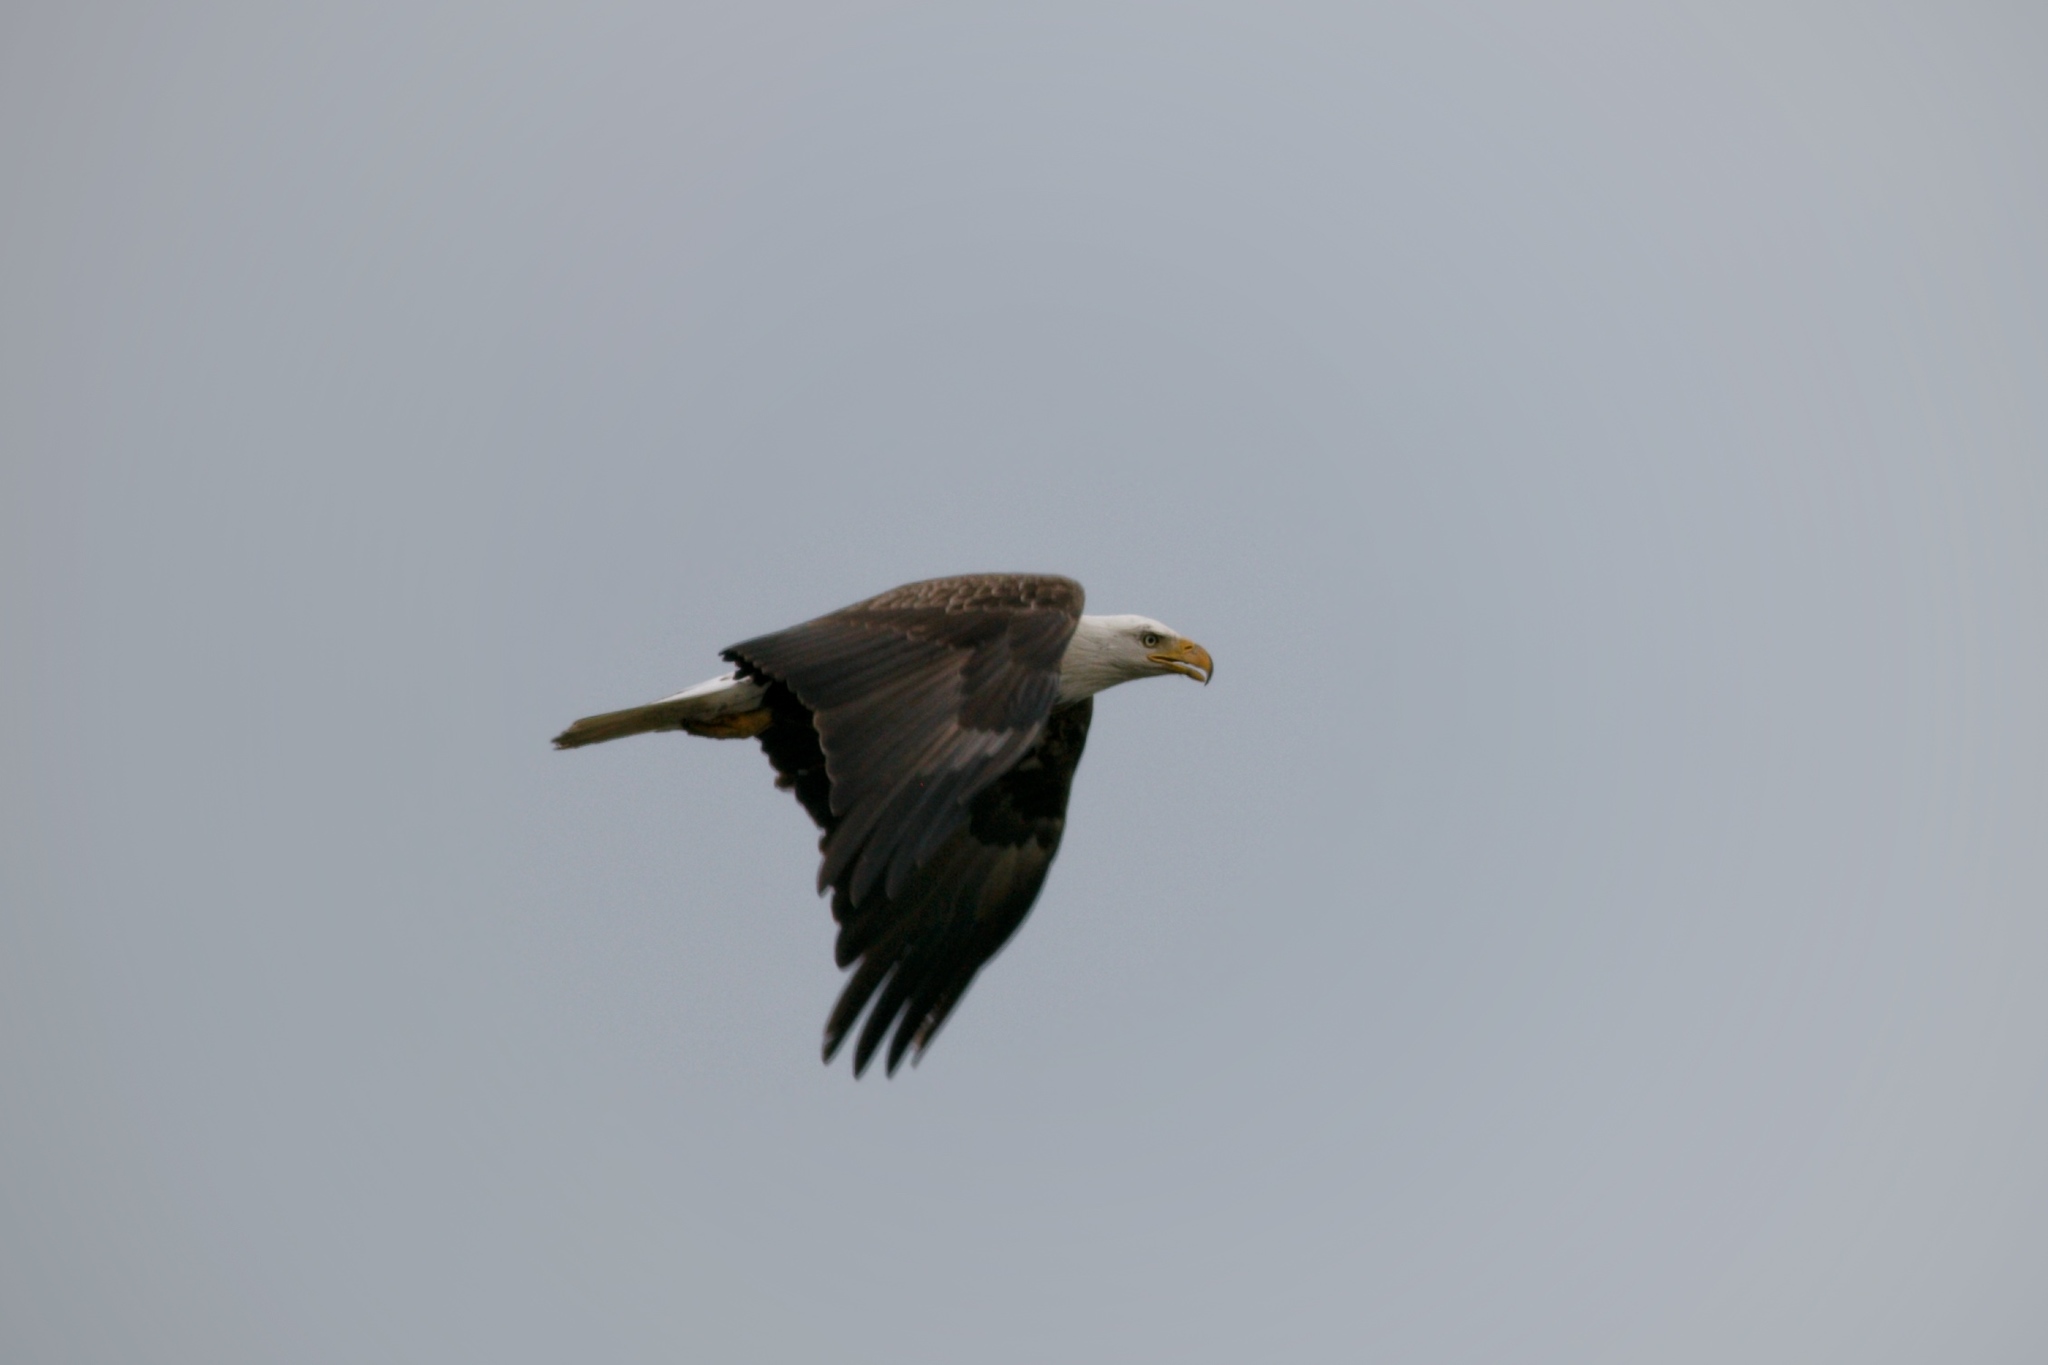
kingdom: Animalia
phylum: Chordata
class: Aves
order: Accipitriformes
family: Accipitridae
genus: Haliaeetus
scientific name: Haliaeetus leucocephalus
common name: Bald eagle
